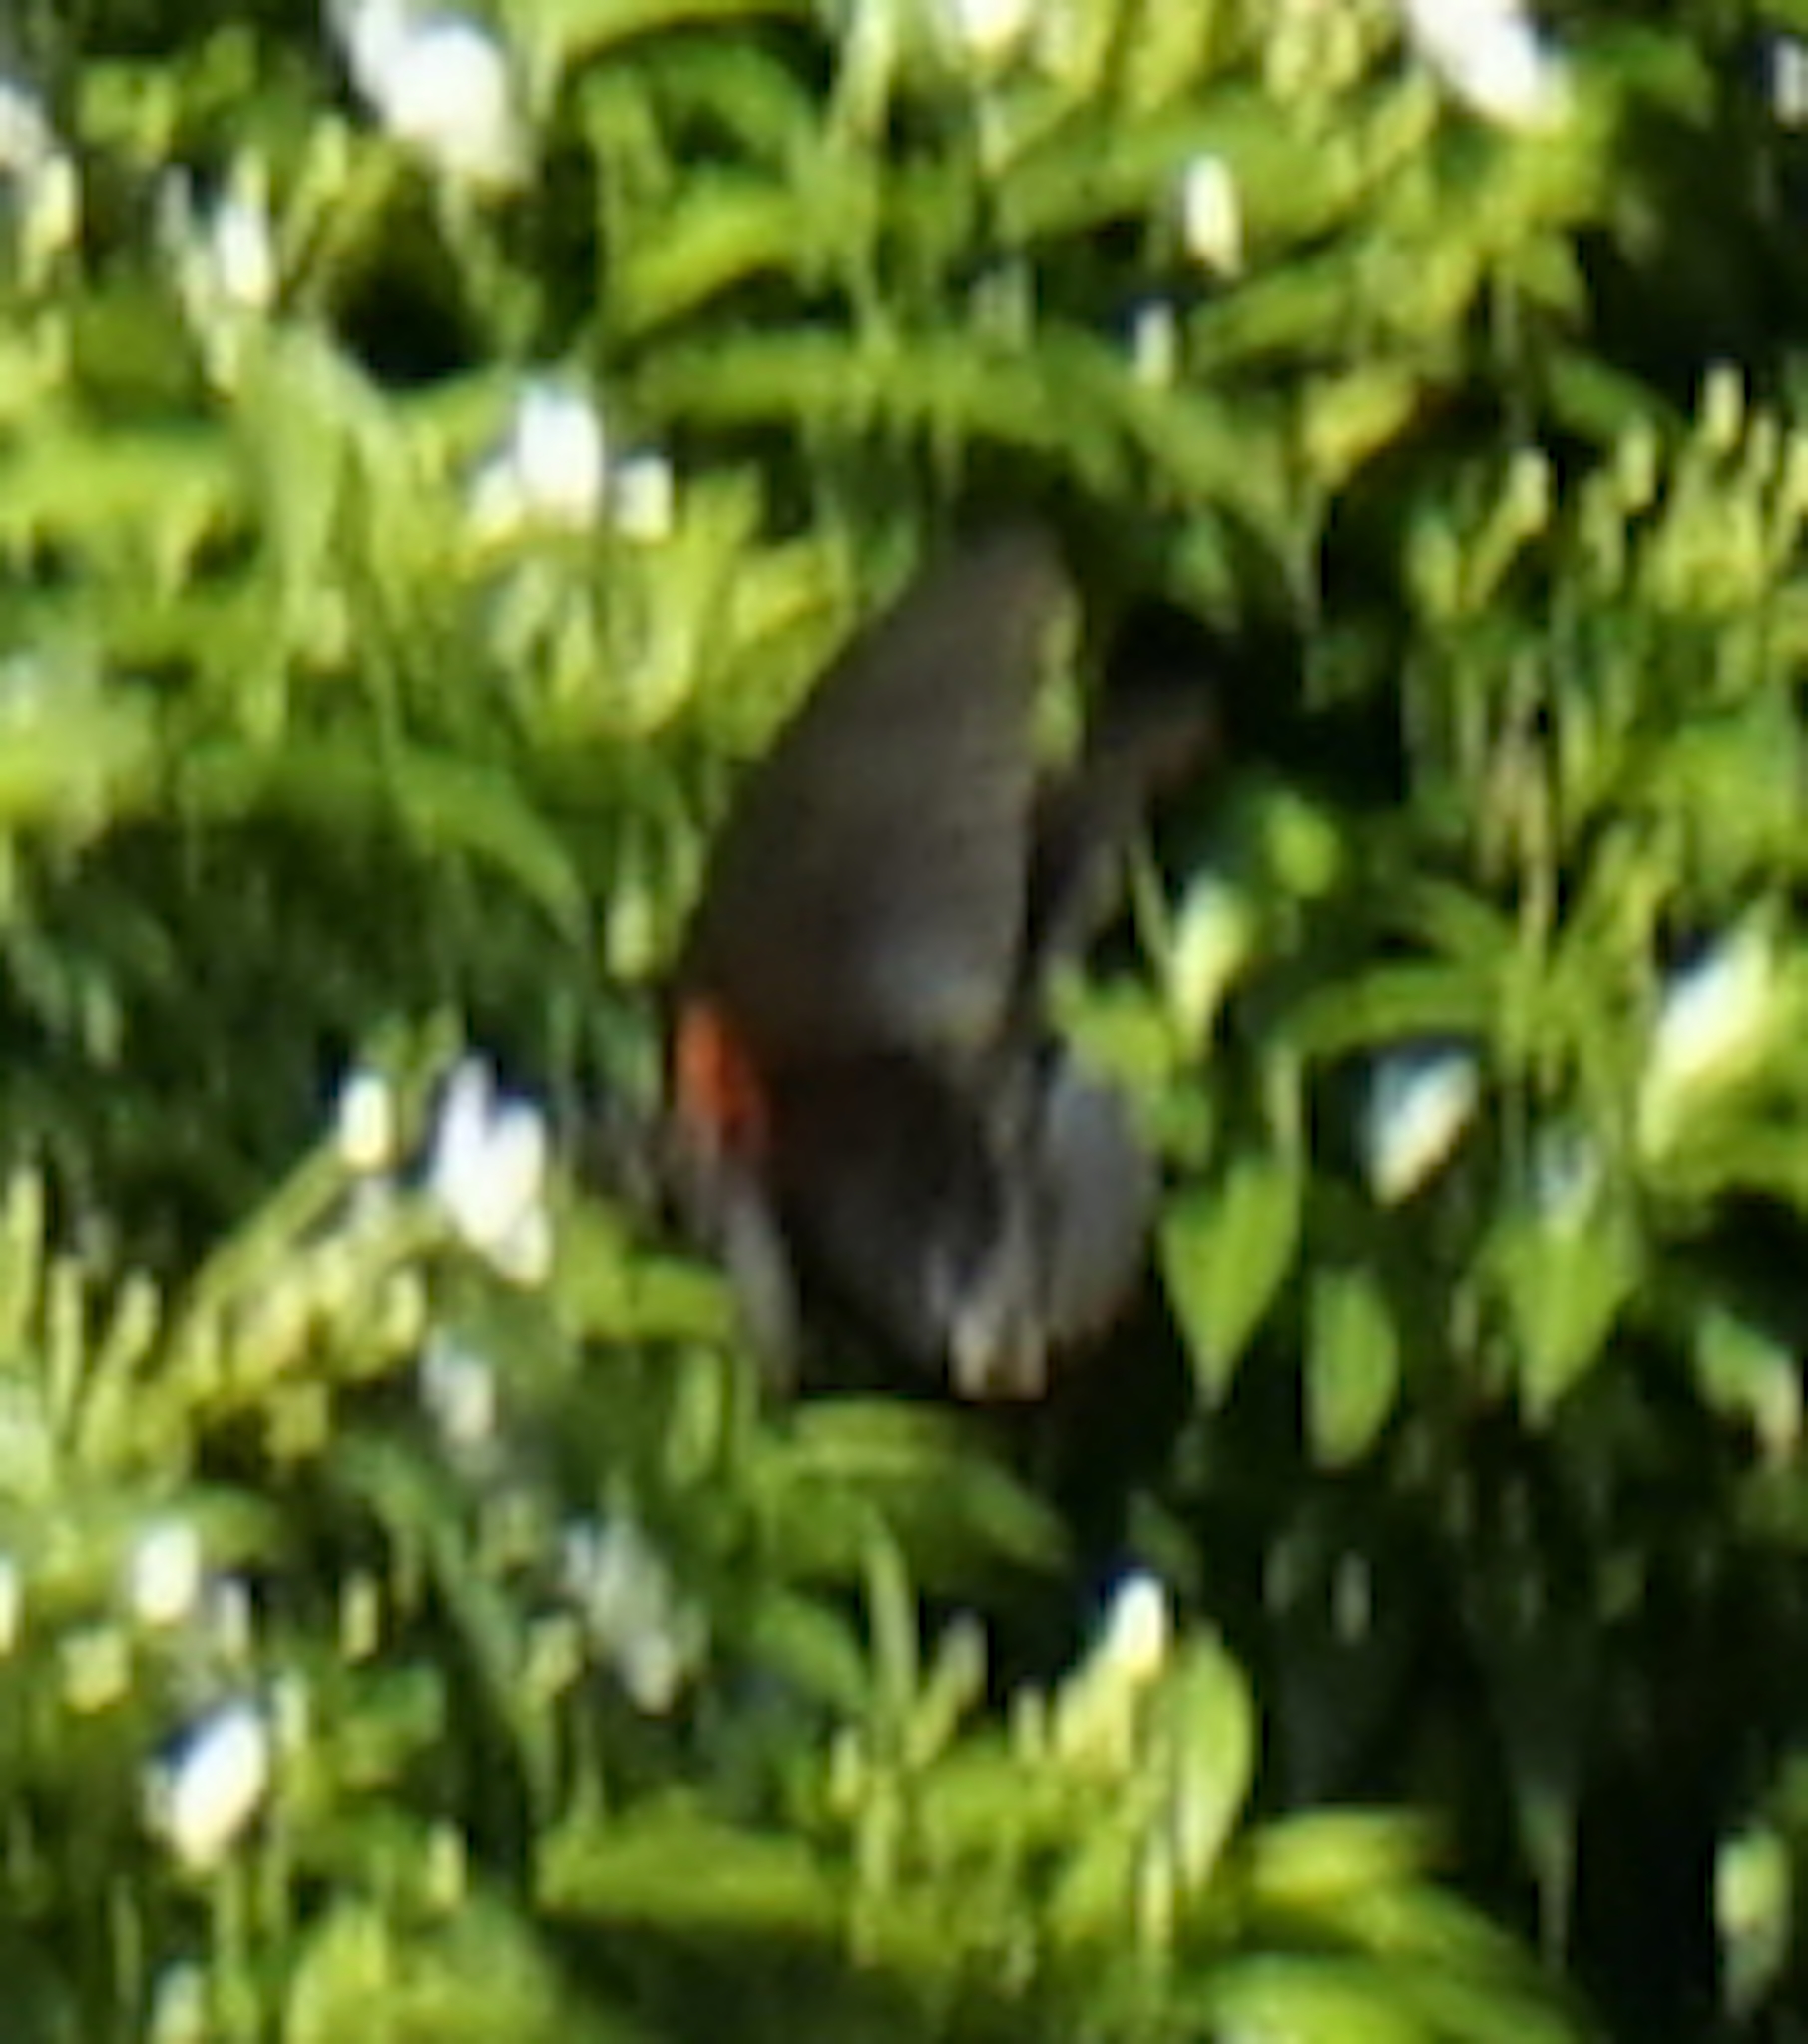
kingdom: Animalia
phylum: Arthropoda
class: Insecta
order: Lepidoptera
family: Papilionidae
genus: Papilio
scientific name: Papilio memnon
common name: Great mormon
